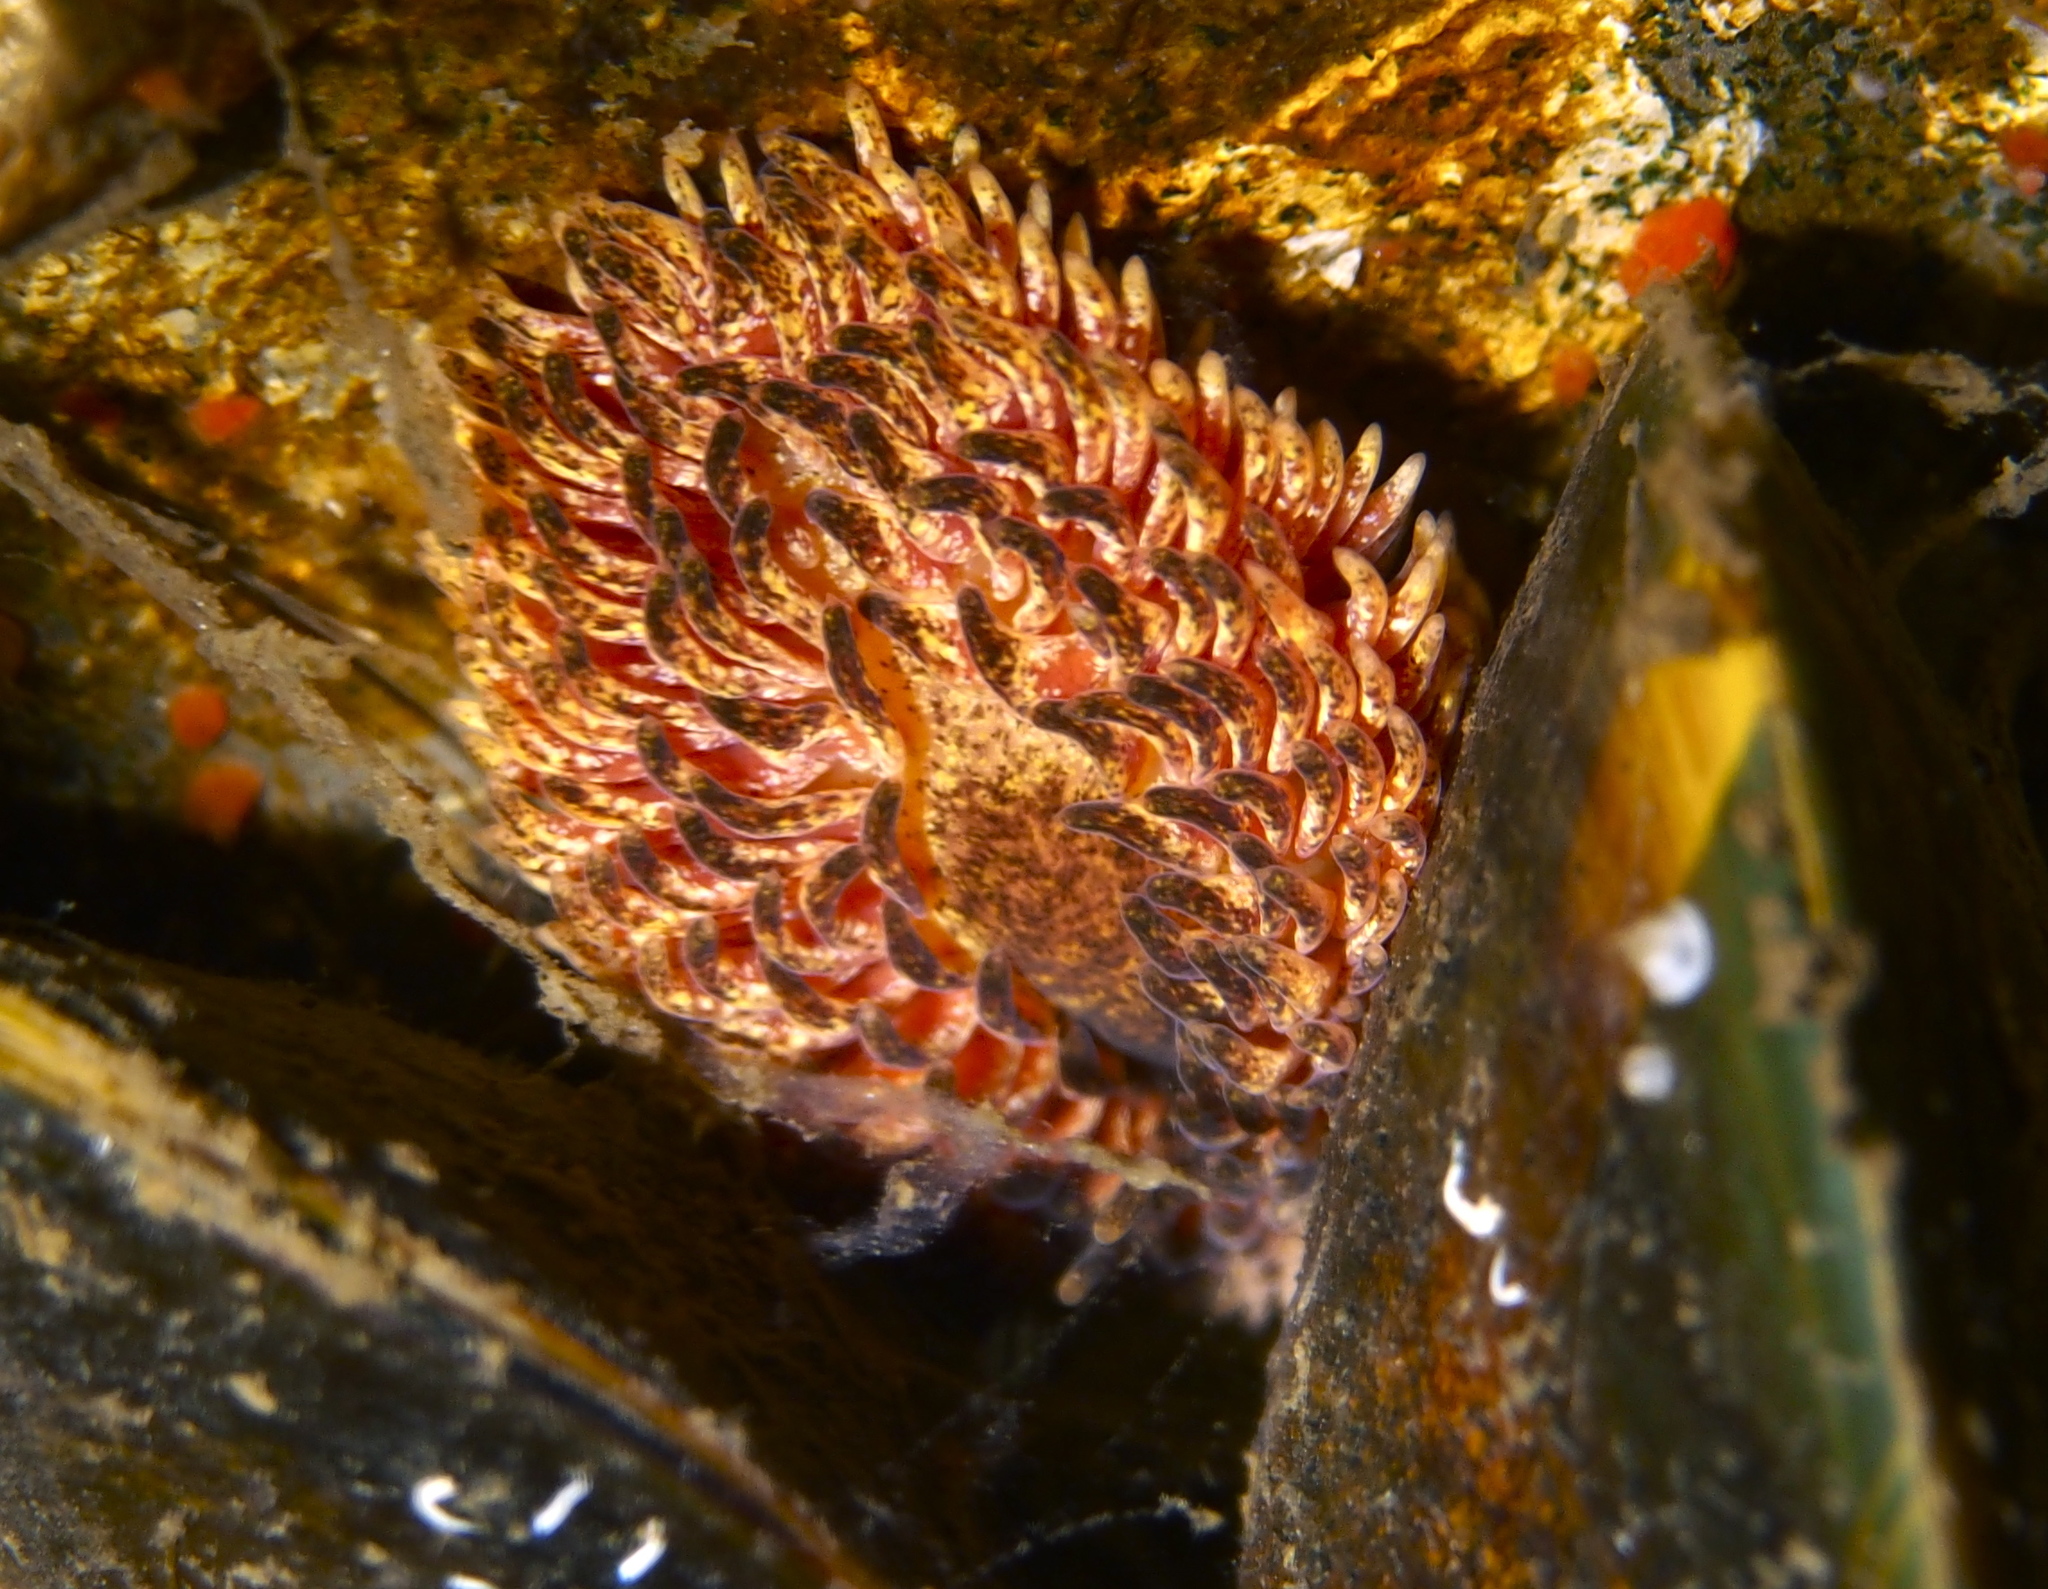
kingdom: Animalia
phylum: Mollusca
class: Gastropoda
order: Nudibranchia
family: Aeolidiidae
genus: Aeolidia
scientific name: Aeolidia papillosa
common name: Common grey sea slug
